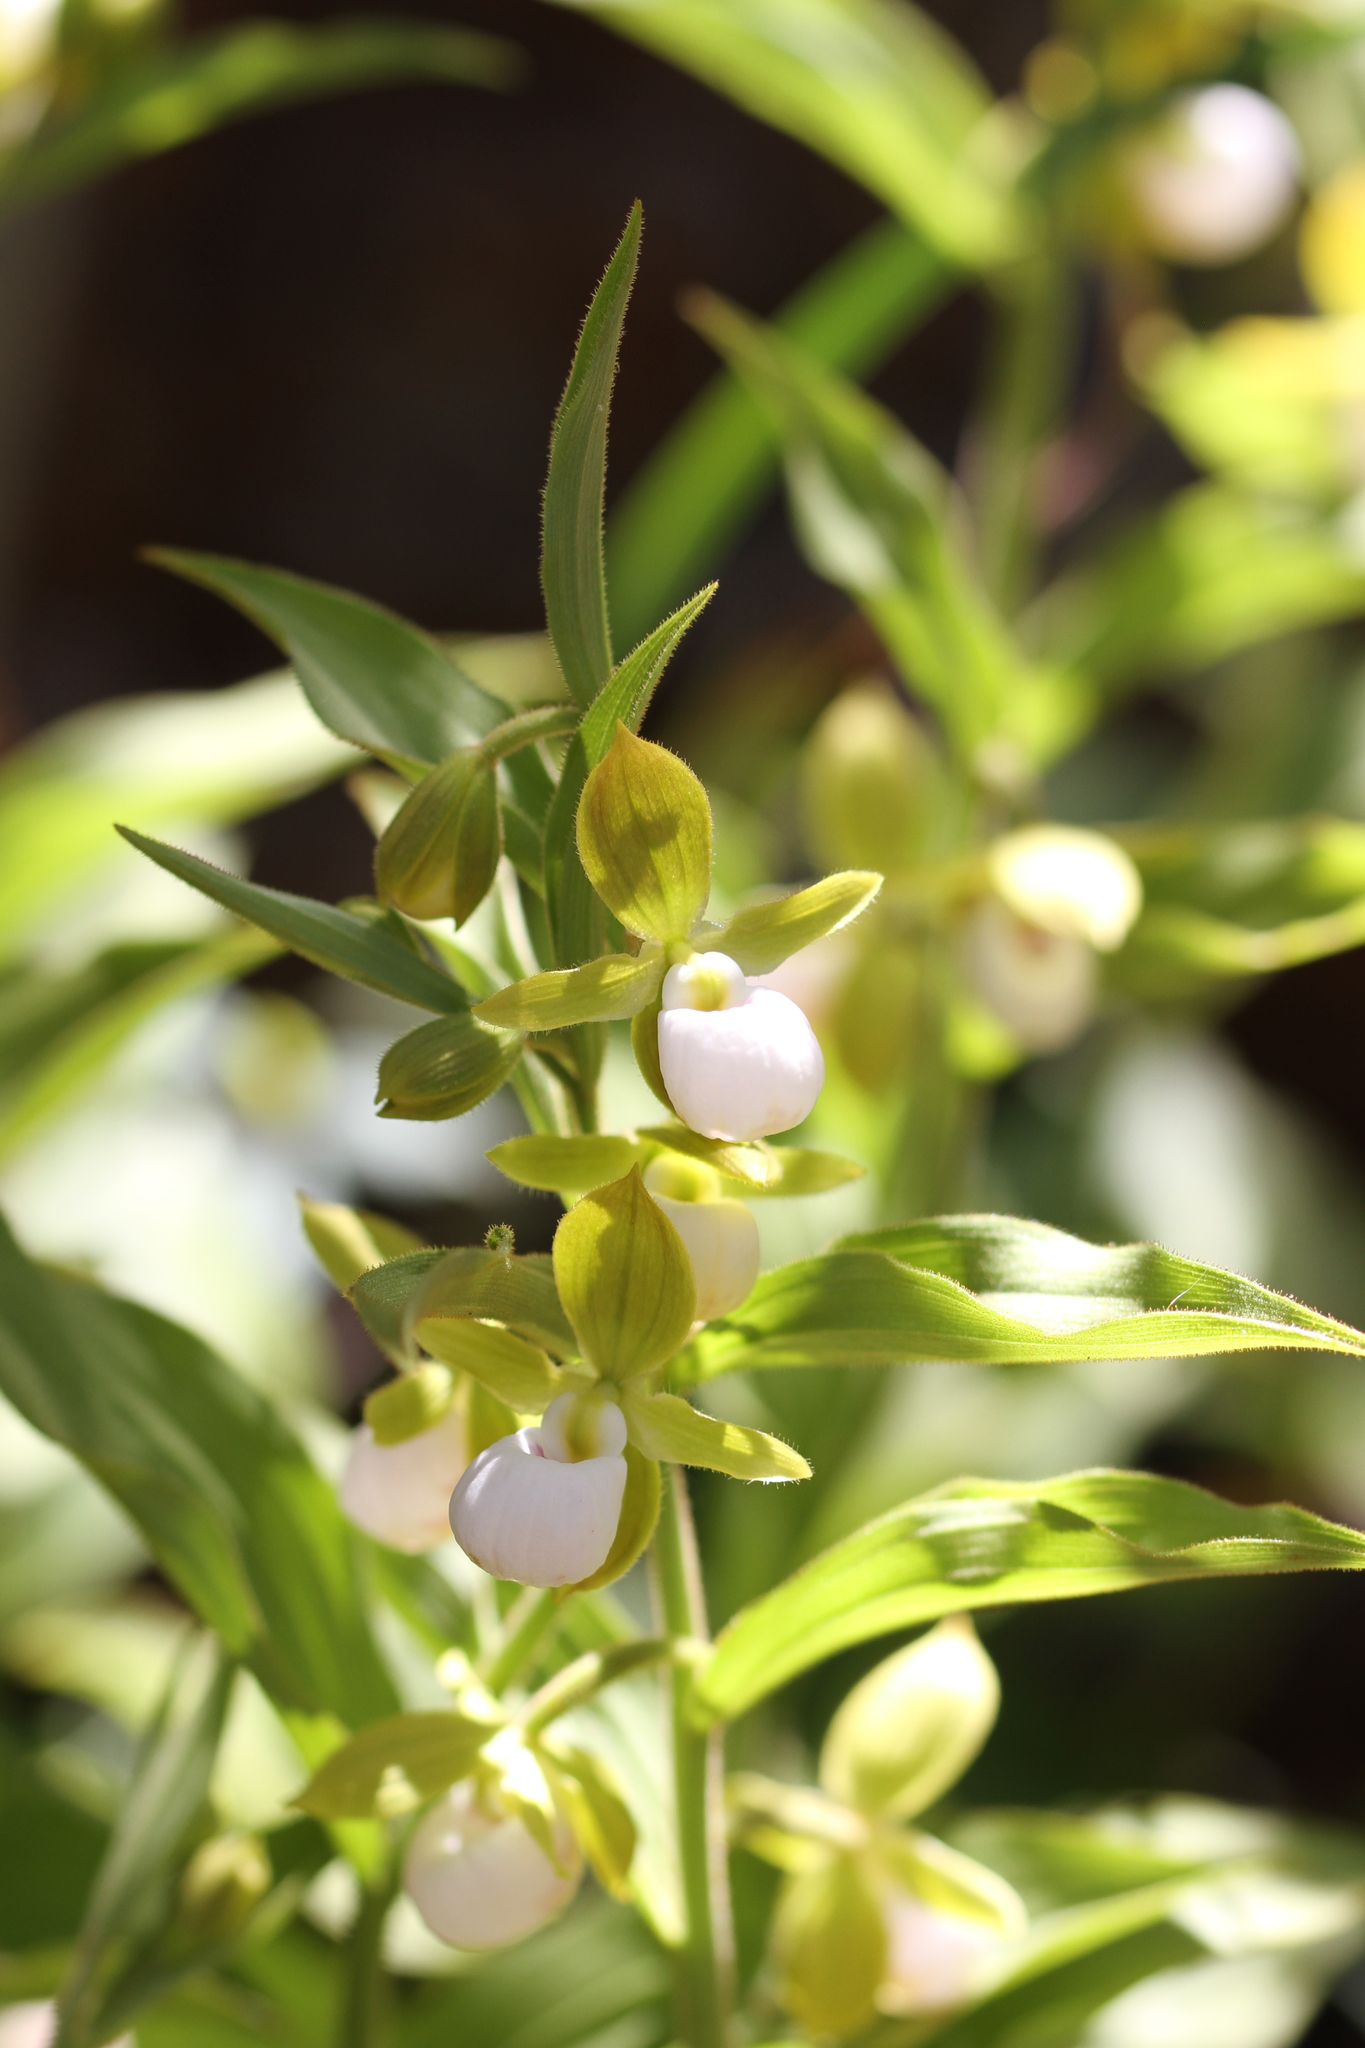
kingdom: Plantae
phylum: Tracheophyta
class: Liliopsida
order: Asparagales
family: Orchidaceae
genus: Cypripedium
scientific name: Cypripedium californicum
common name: California lady's slipper
